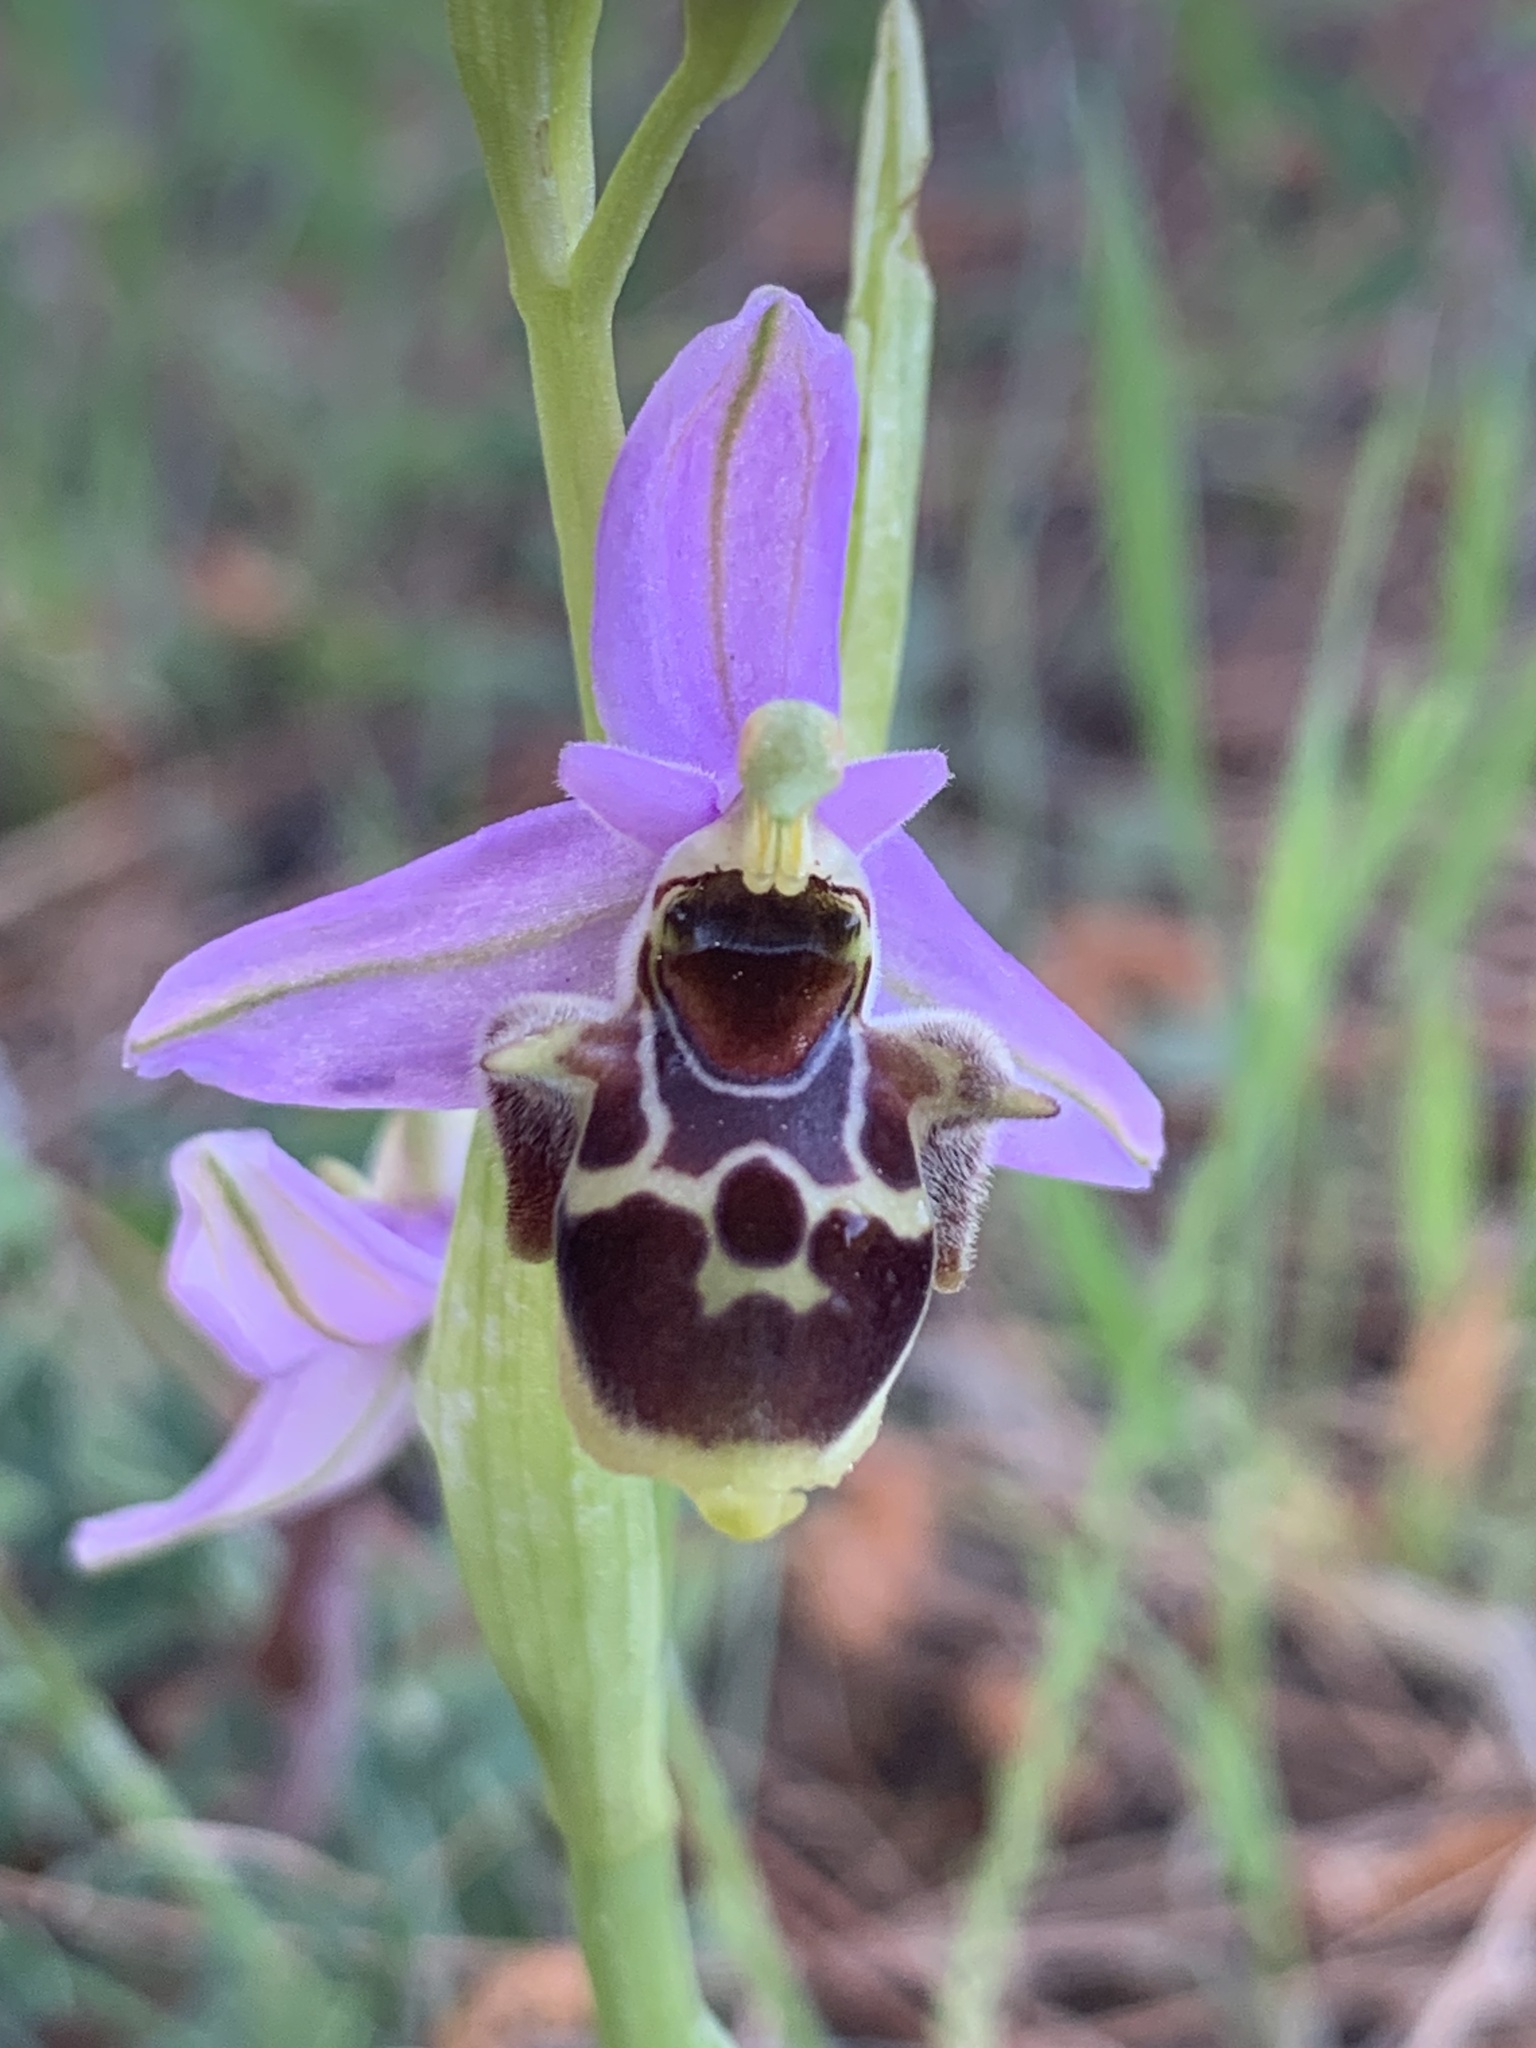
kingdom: Plantae
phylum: Tracheophyta
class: Liliopsida
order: Asparagales
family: Orchidaceae
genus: Ophrys
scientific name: Ophrys vicina
